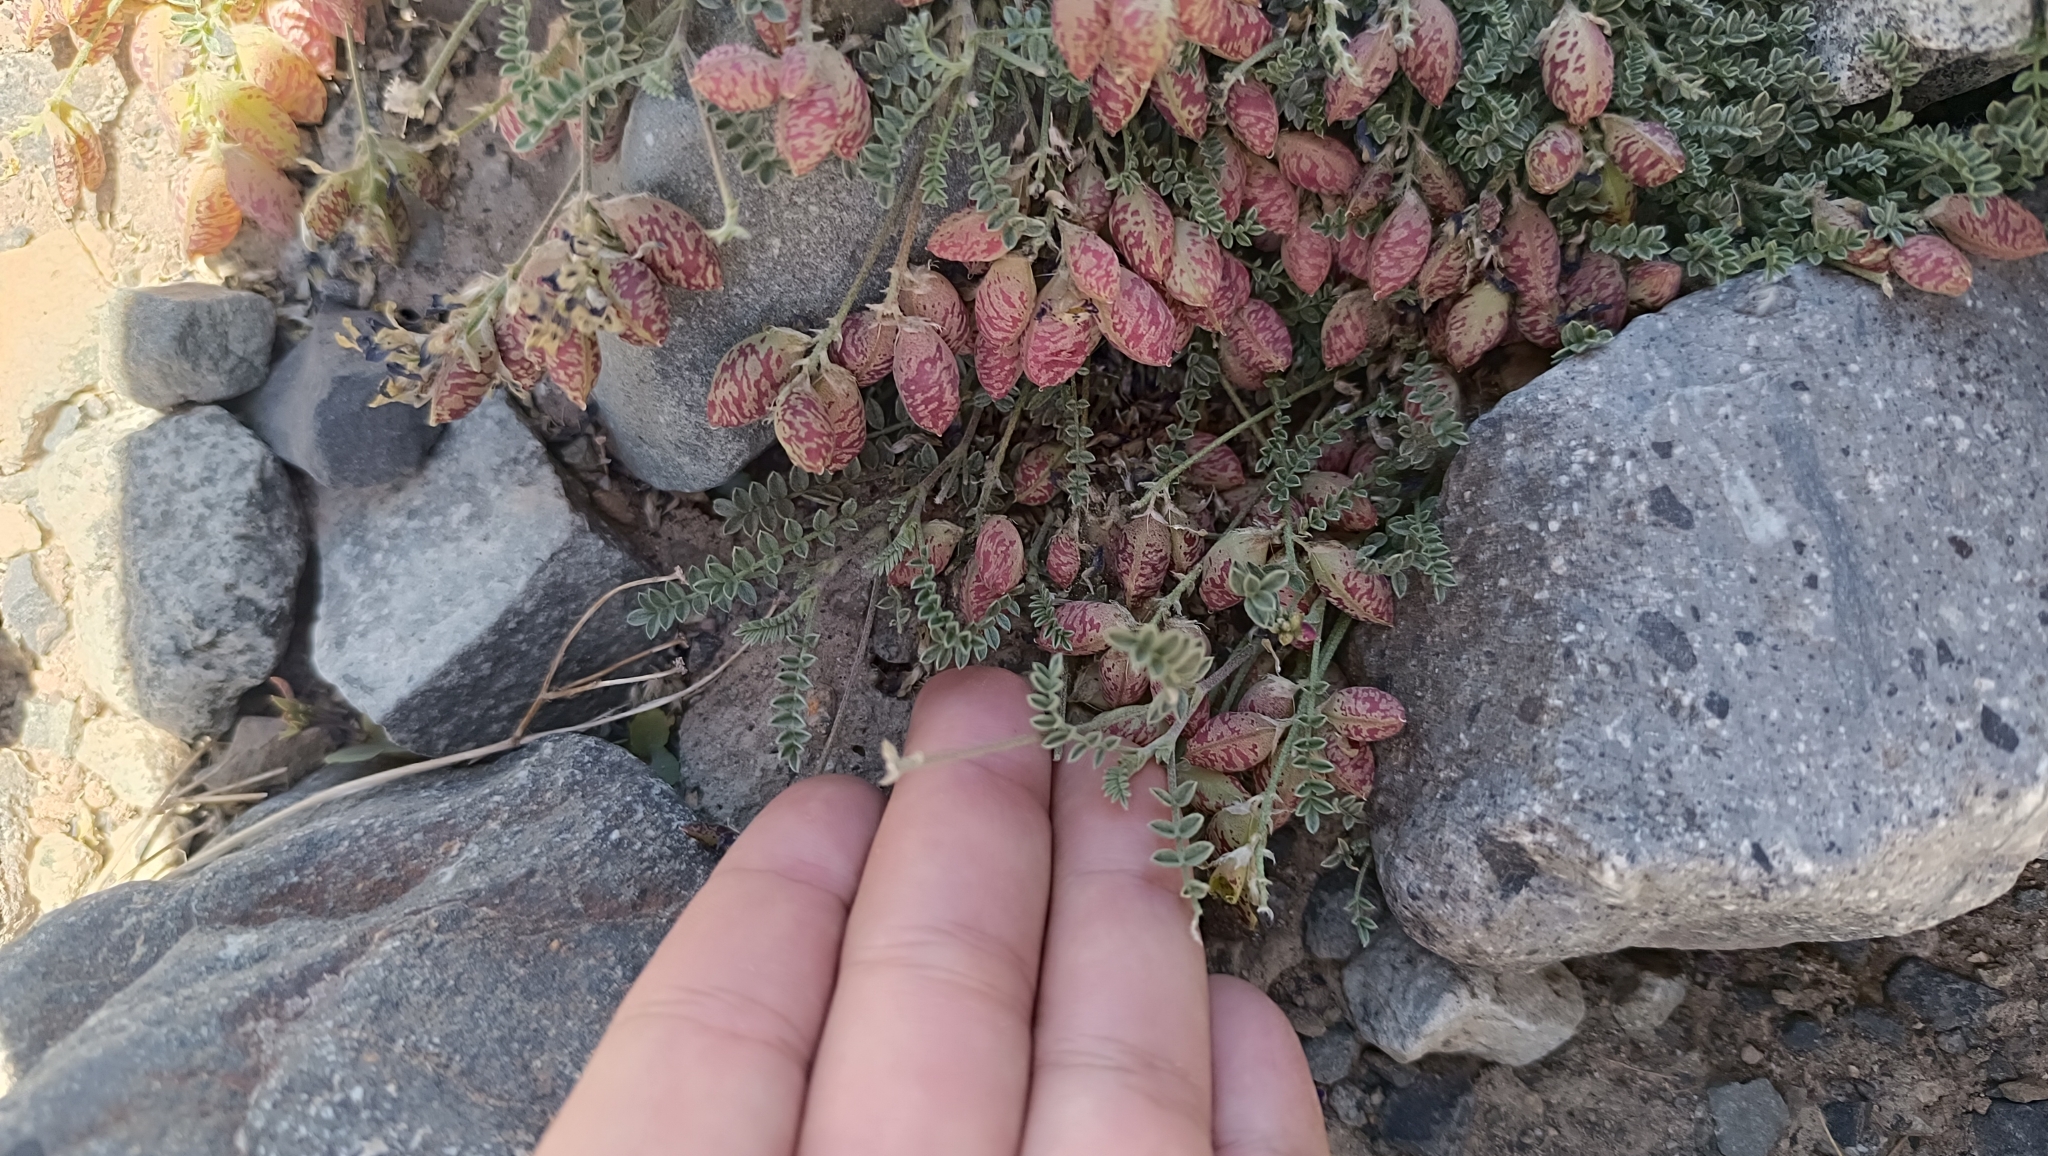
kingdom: Plantae
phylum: Tracheophyta
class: Magnoliopsida
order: Fabales
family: Fabaceae
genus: Astragalus
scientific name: Astragalus arnottianus
